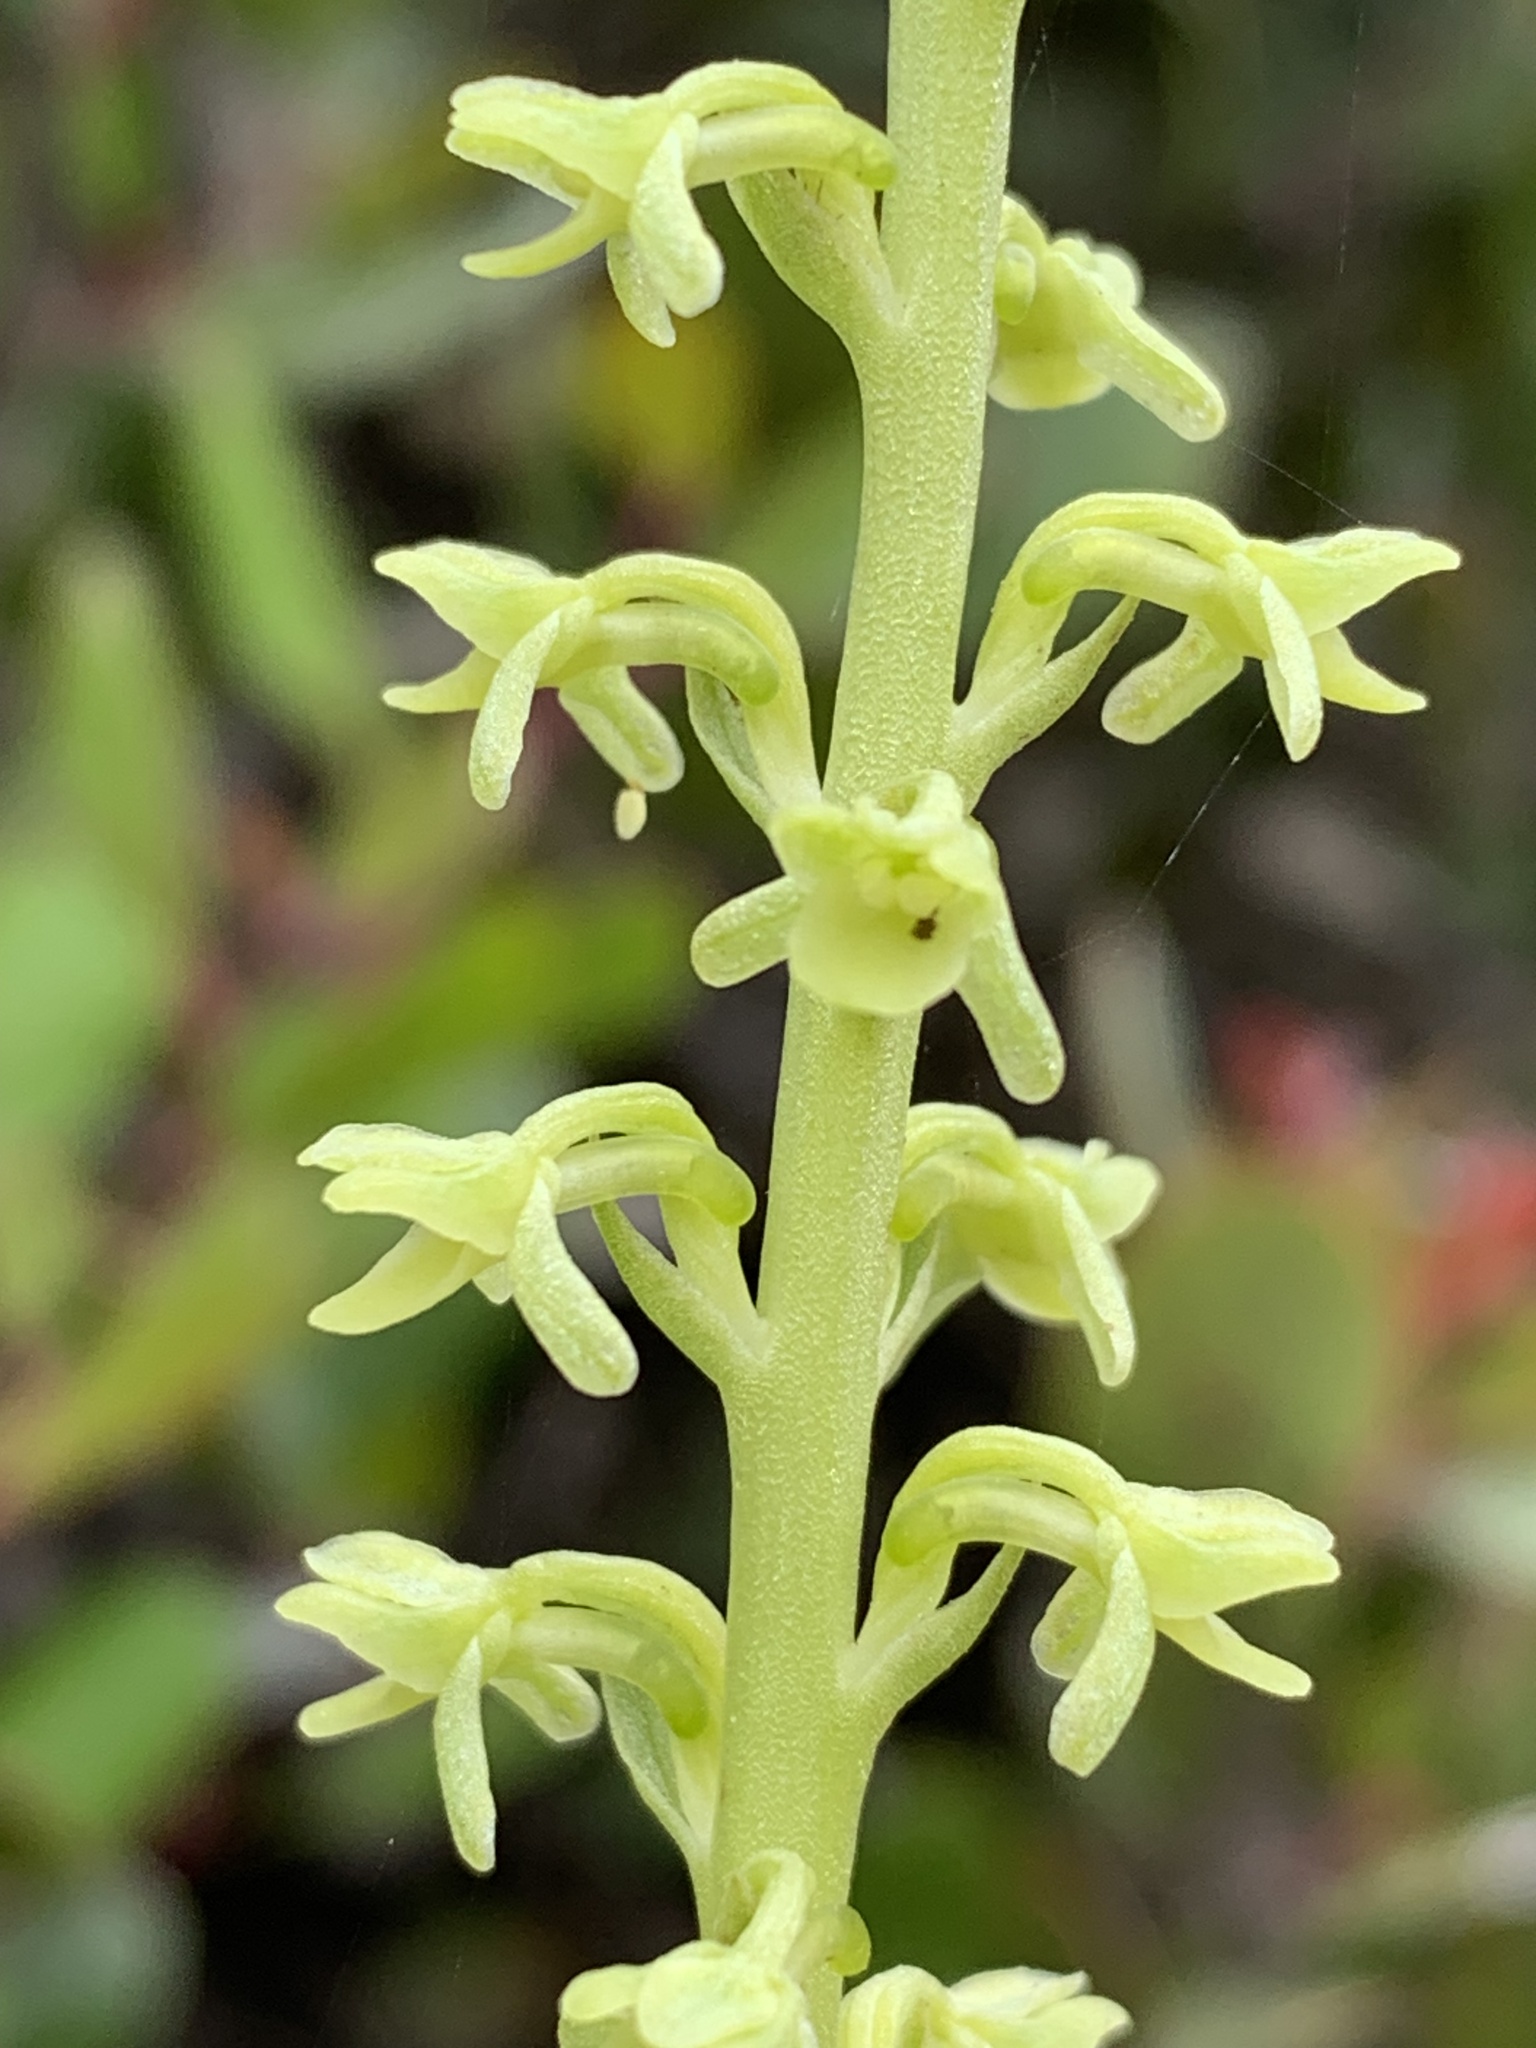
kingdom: Plantae
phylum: Tracheophyta
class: Liliopsida
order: Asparagales
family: Orchidaceae
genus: Platanthera
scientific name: Platanthera unalascensis
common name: Alaska bog orchid
